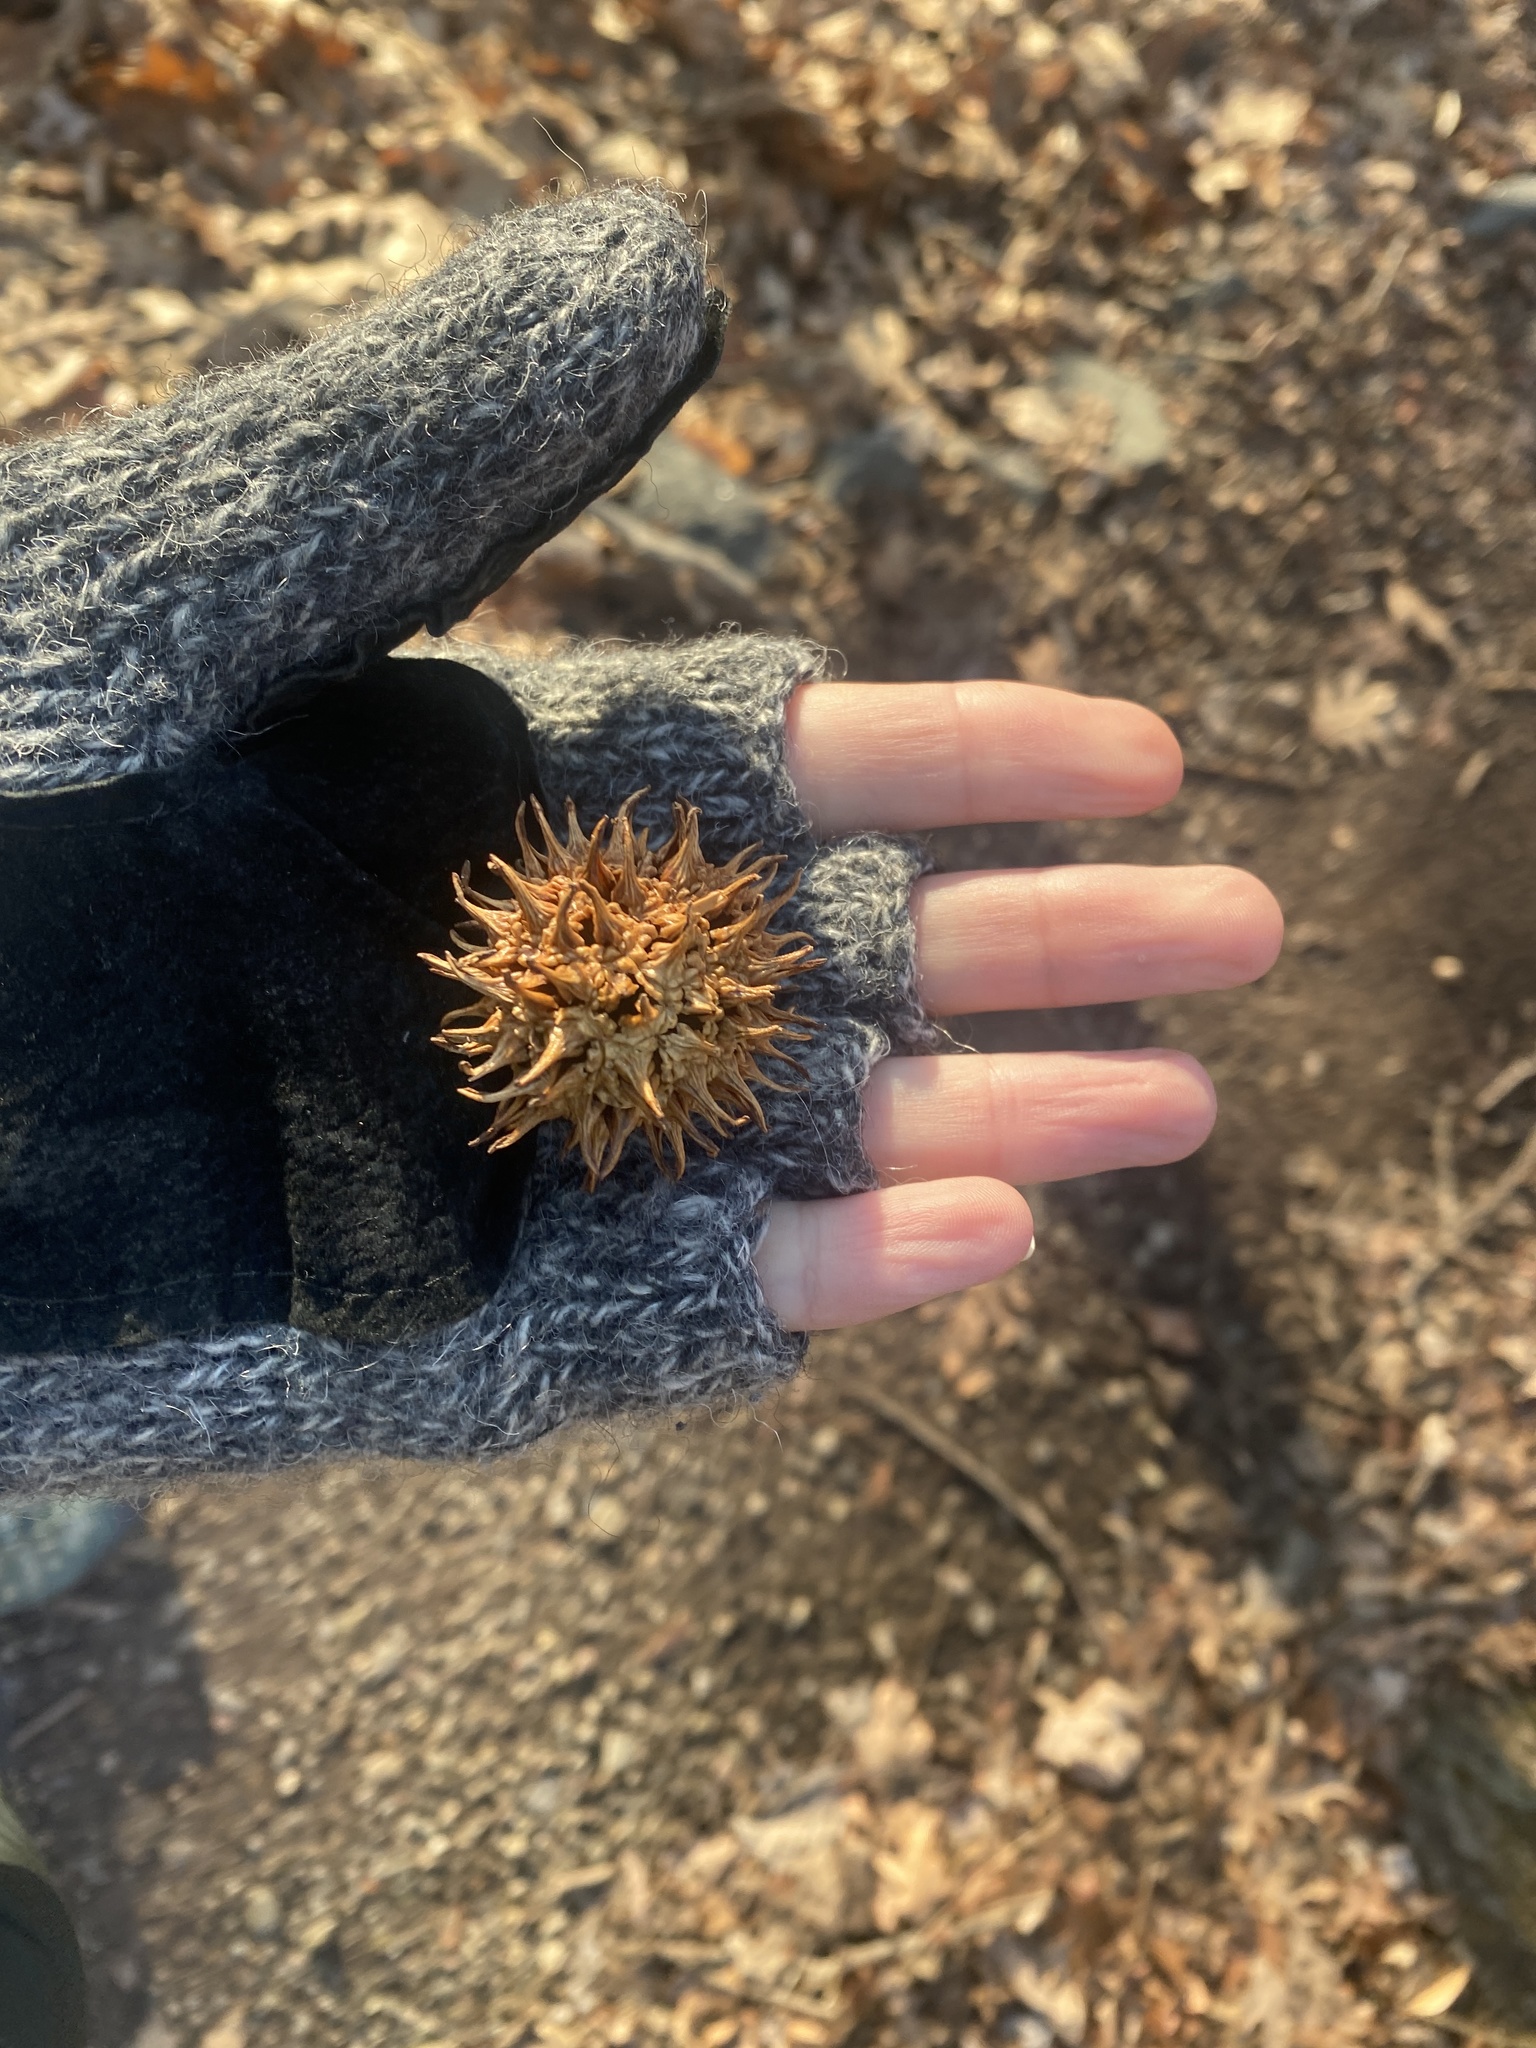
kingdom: Plantae
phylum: Tracheophyta
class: Magnoliopsida
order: Saxifragales
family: Altingiaceae
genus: Liquidambar
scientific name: Liquidambar styraciflua
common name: Sweet gum
